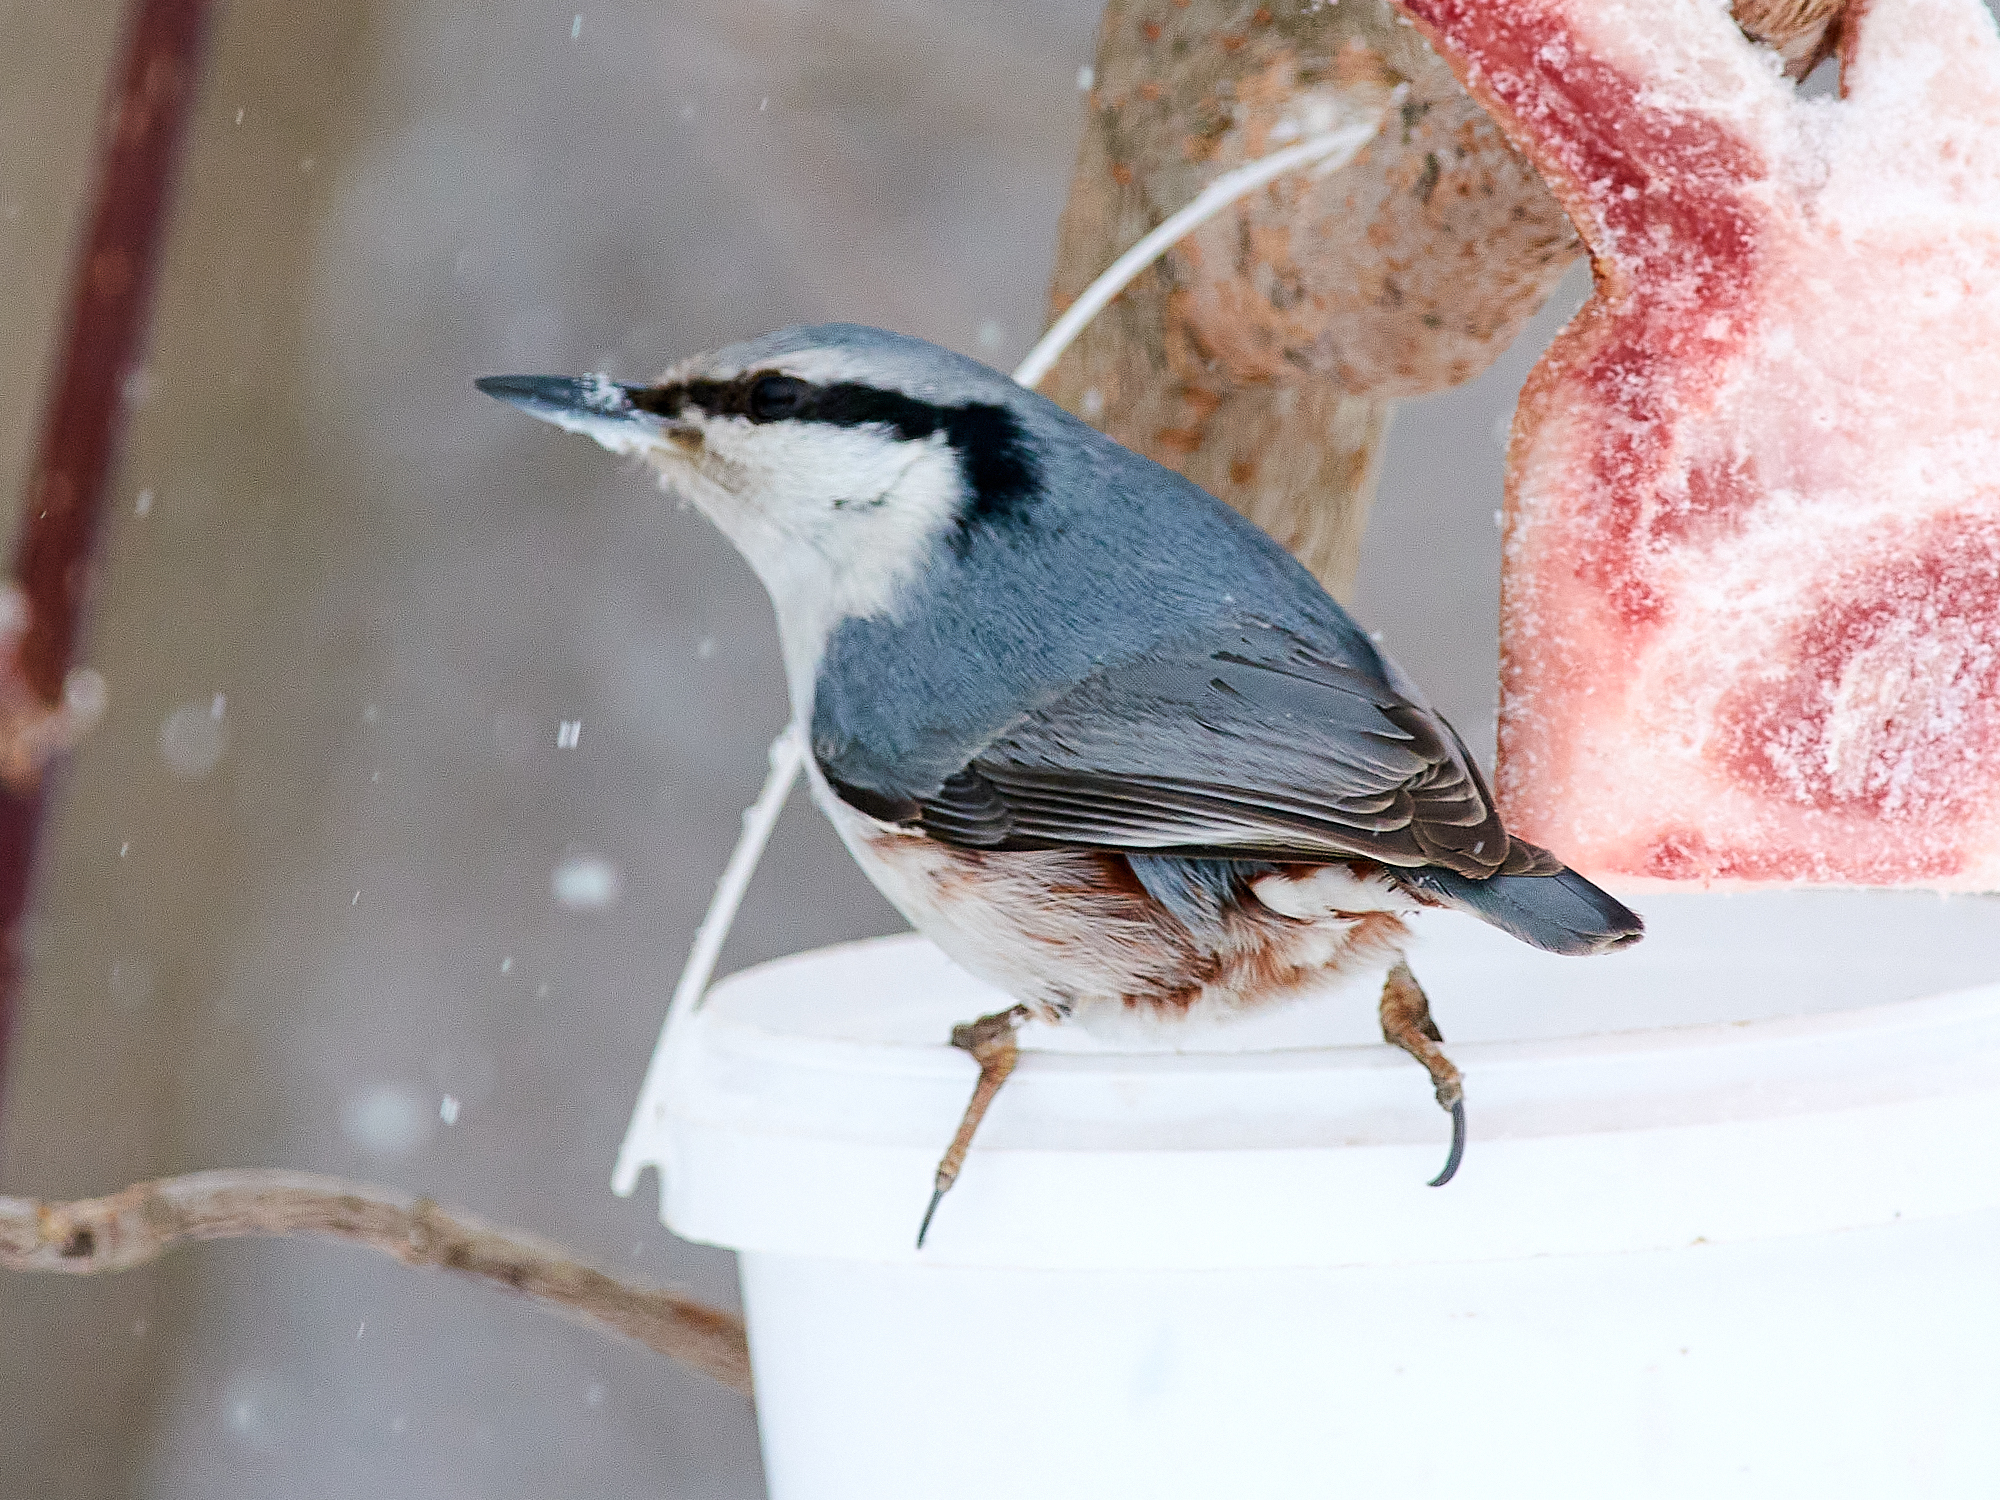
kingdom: Animalia
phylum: Chordata
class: Aves
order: Passeriformes
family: Sittidae
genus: Sitta
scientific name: Sitta europaea
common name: Eurasian nuthatch
